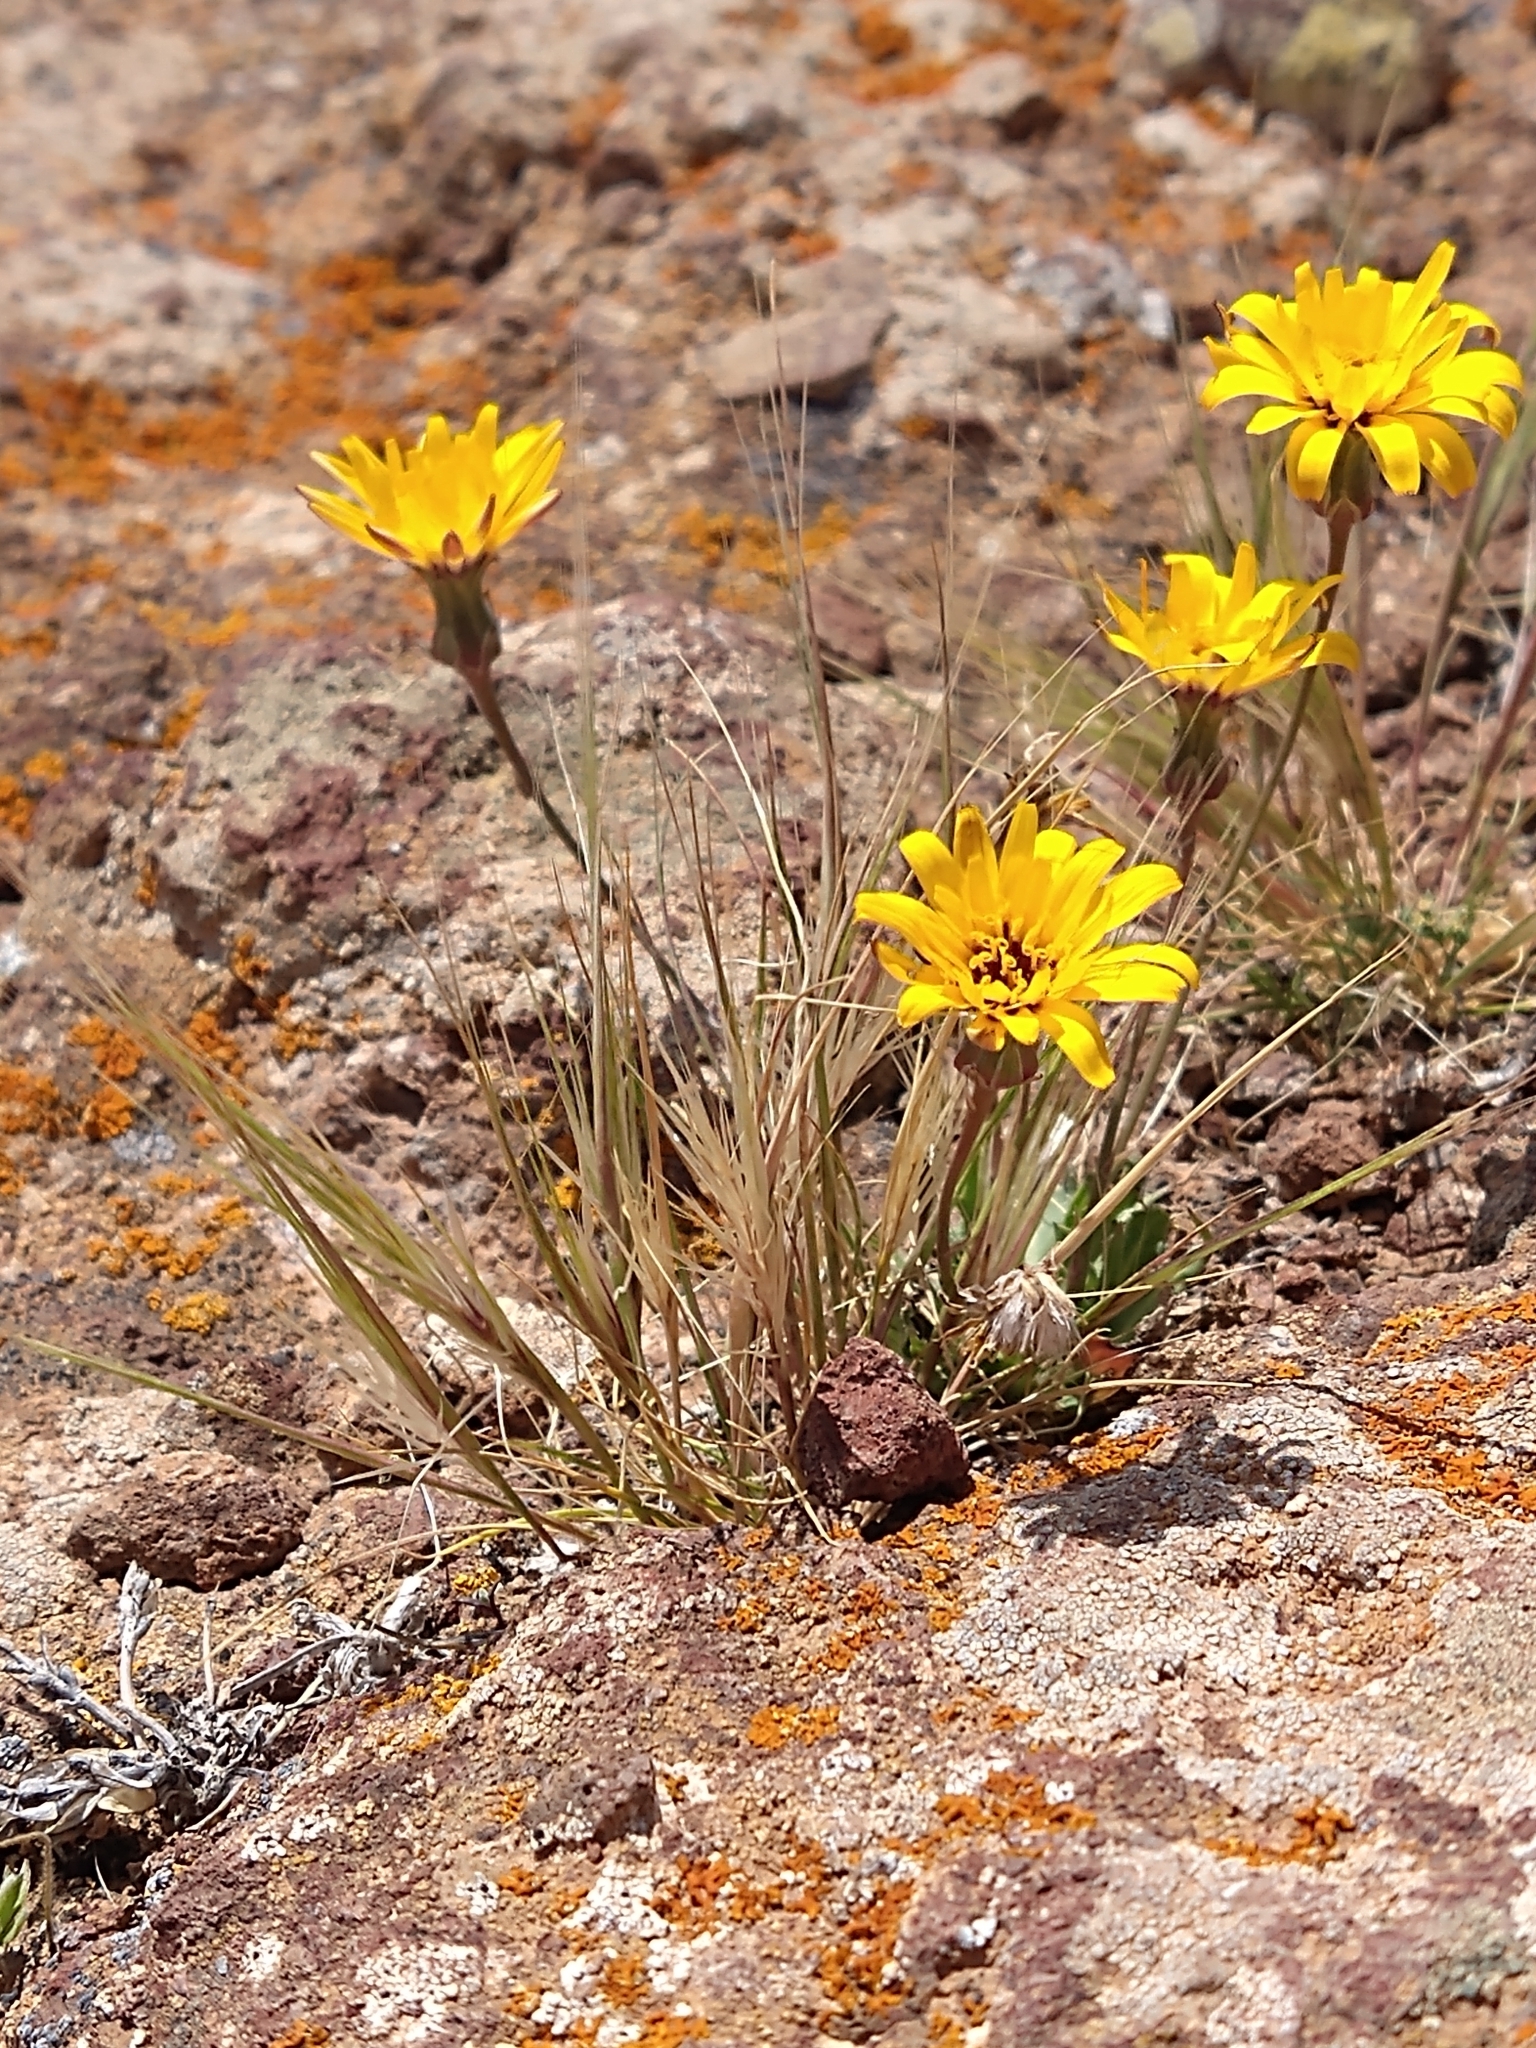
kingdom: Plantae
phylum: Tracheophyta
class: Magnoliopsida
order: Asterales
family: Asteraceae
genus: Reichardia
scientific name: Reichardia tingitana
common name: Reichardia
